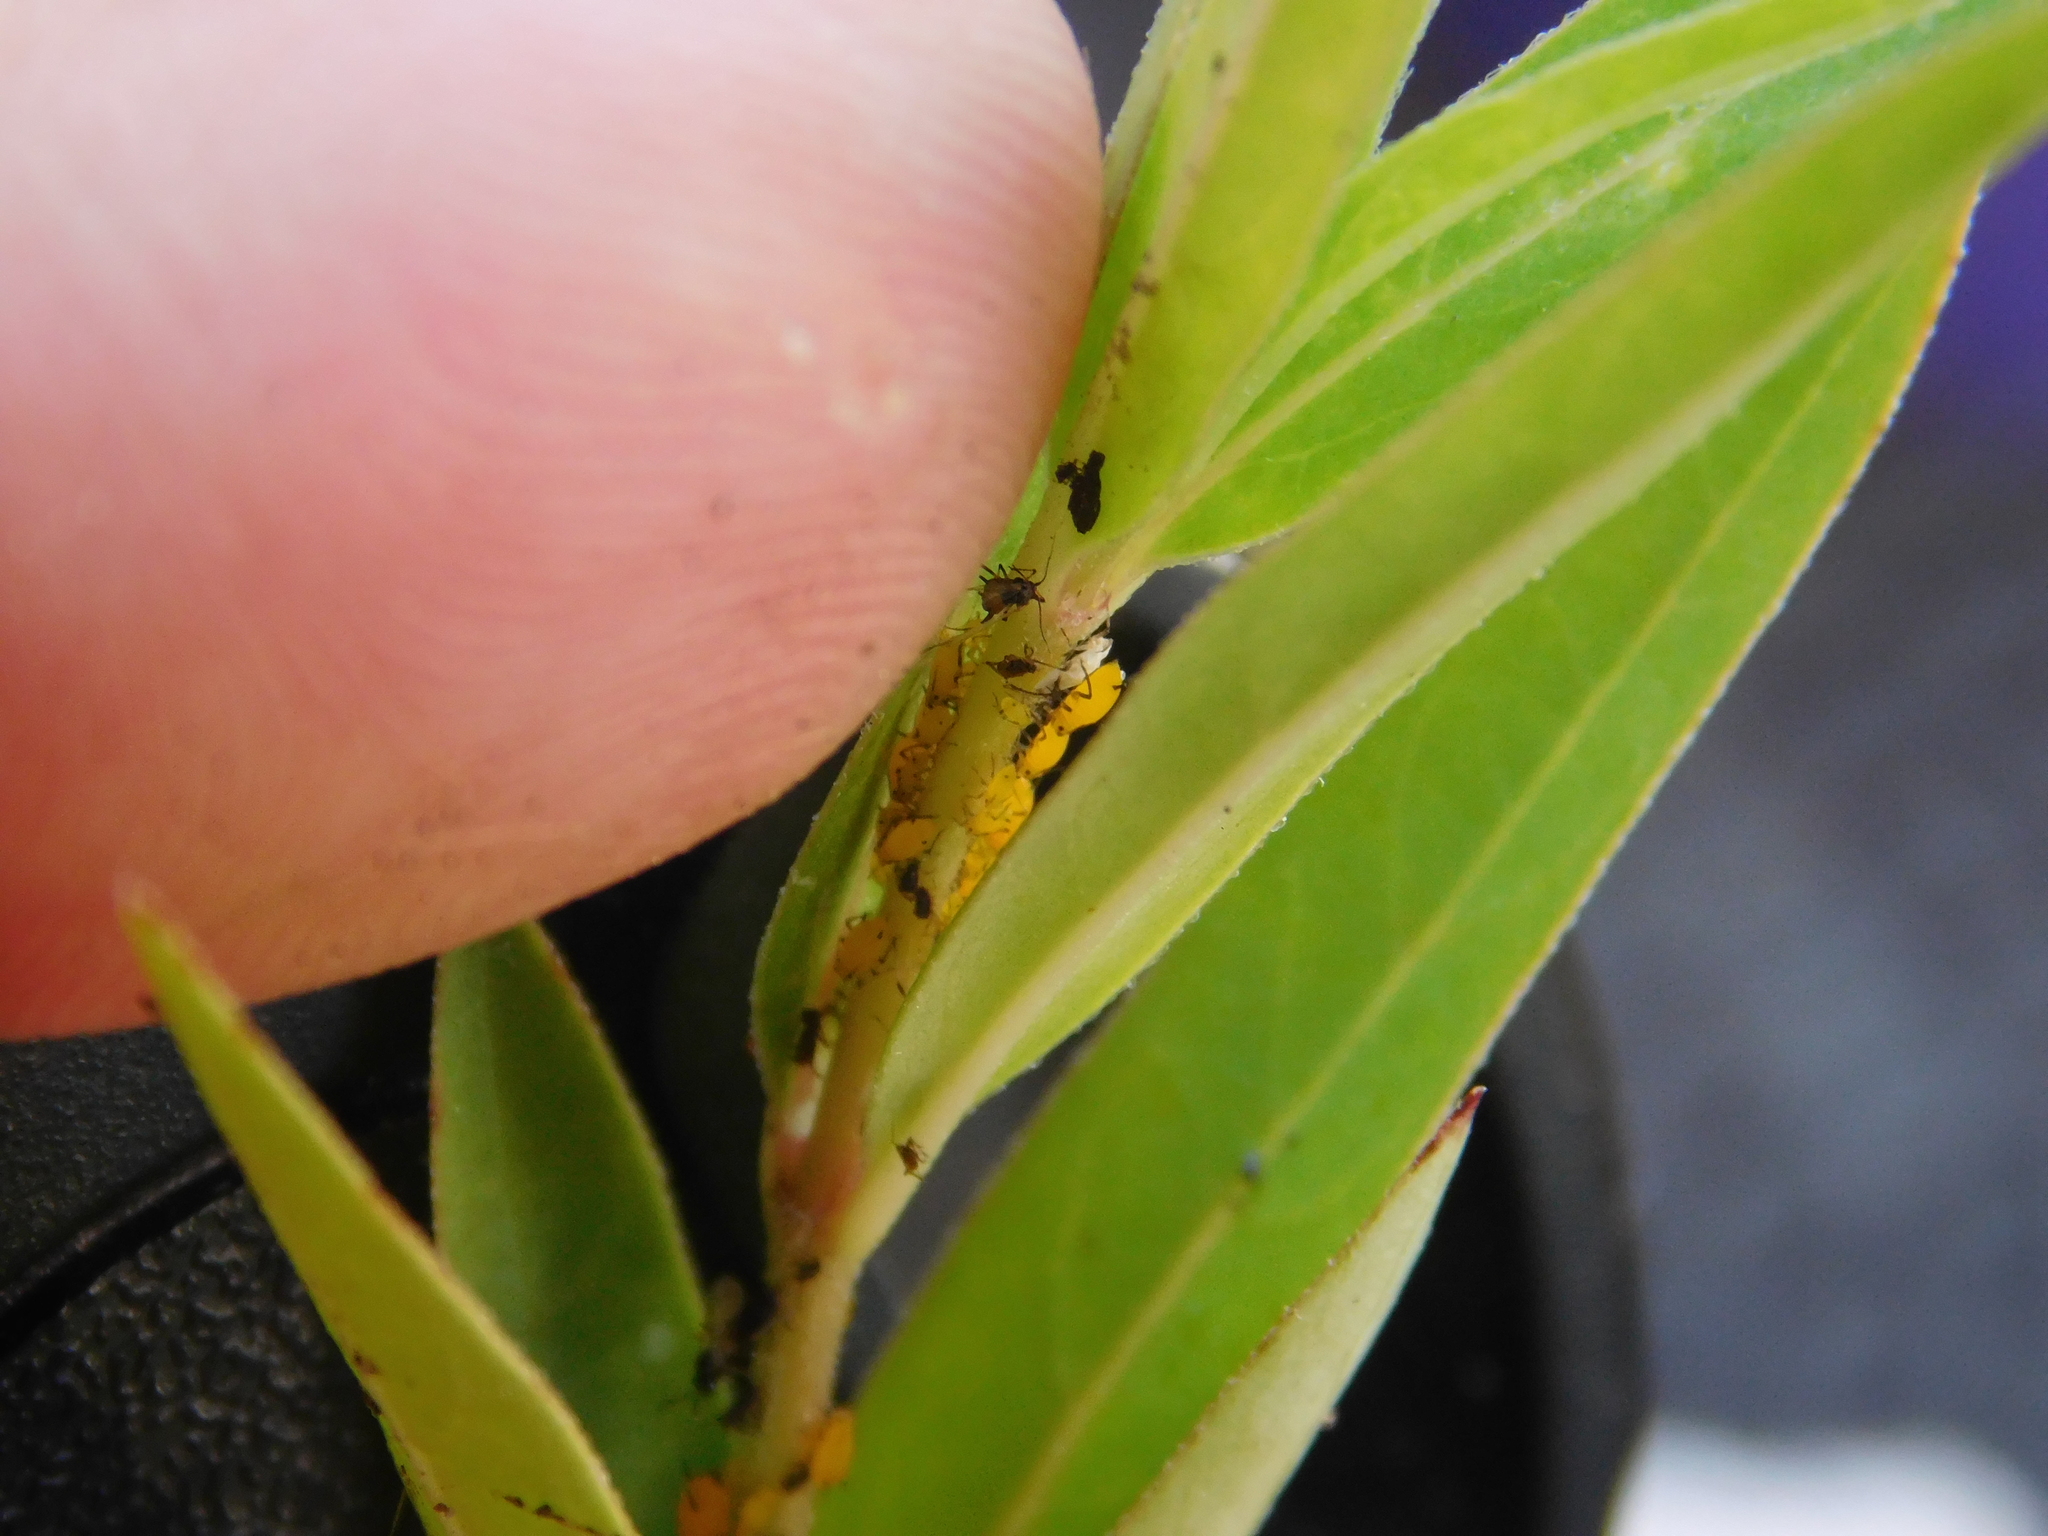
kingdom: Animalia
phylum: Arthropoda
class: Insecta
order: Hemiptera
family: Aphididae
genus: Aphis
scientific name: Aphis nerii
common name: Oleander aphid
